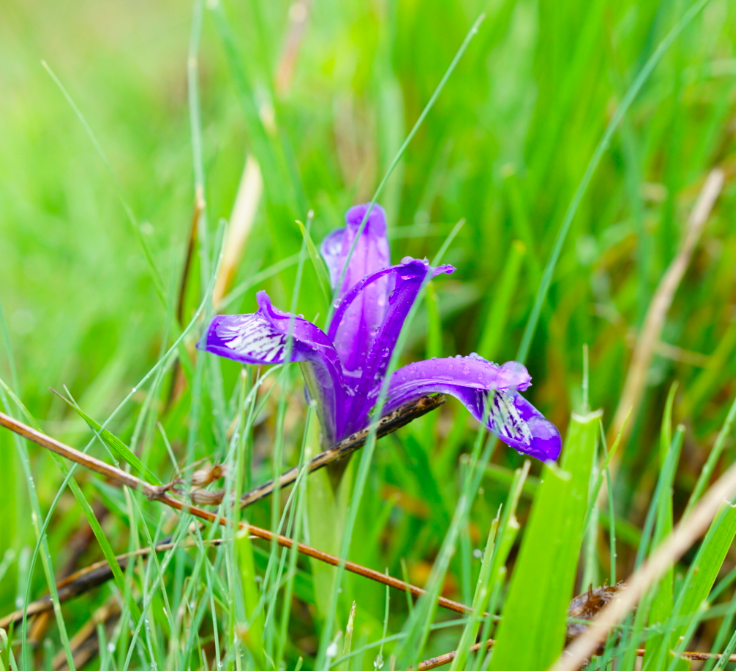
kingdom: Plantae
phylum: Tracheophyta
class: Liliopsida
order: Asparagales
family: Iridaceae
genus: Iris
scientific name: Iris ruthenica
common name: Purple-bract iris
